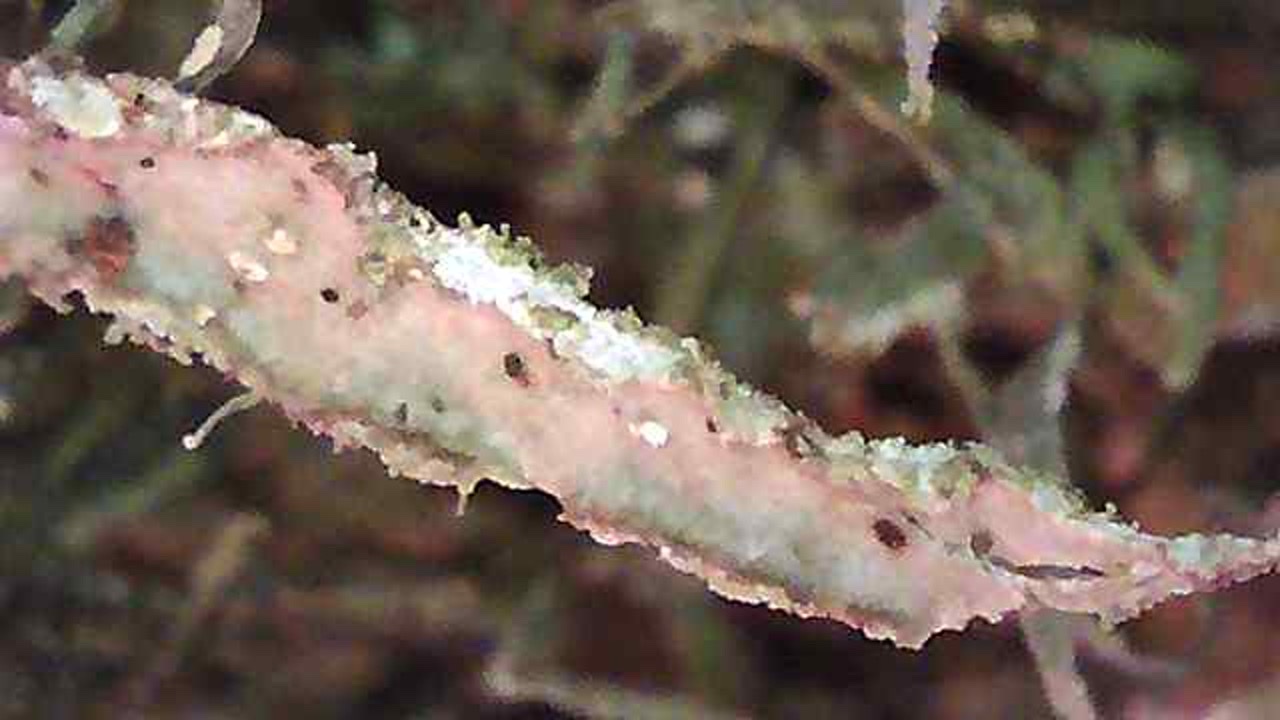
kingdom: Fungi
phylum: Ascomycota
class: Lecanoromycetes
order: Lecanorales
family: Ramalinaceae
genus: Ramalina
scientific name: Ramalina subleptocarpha
